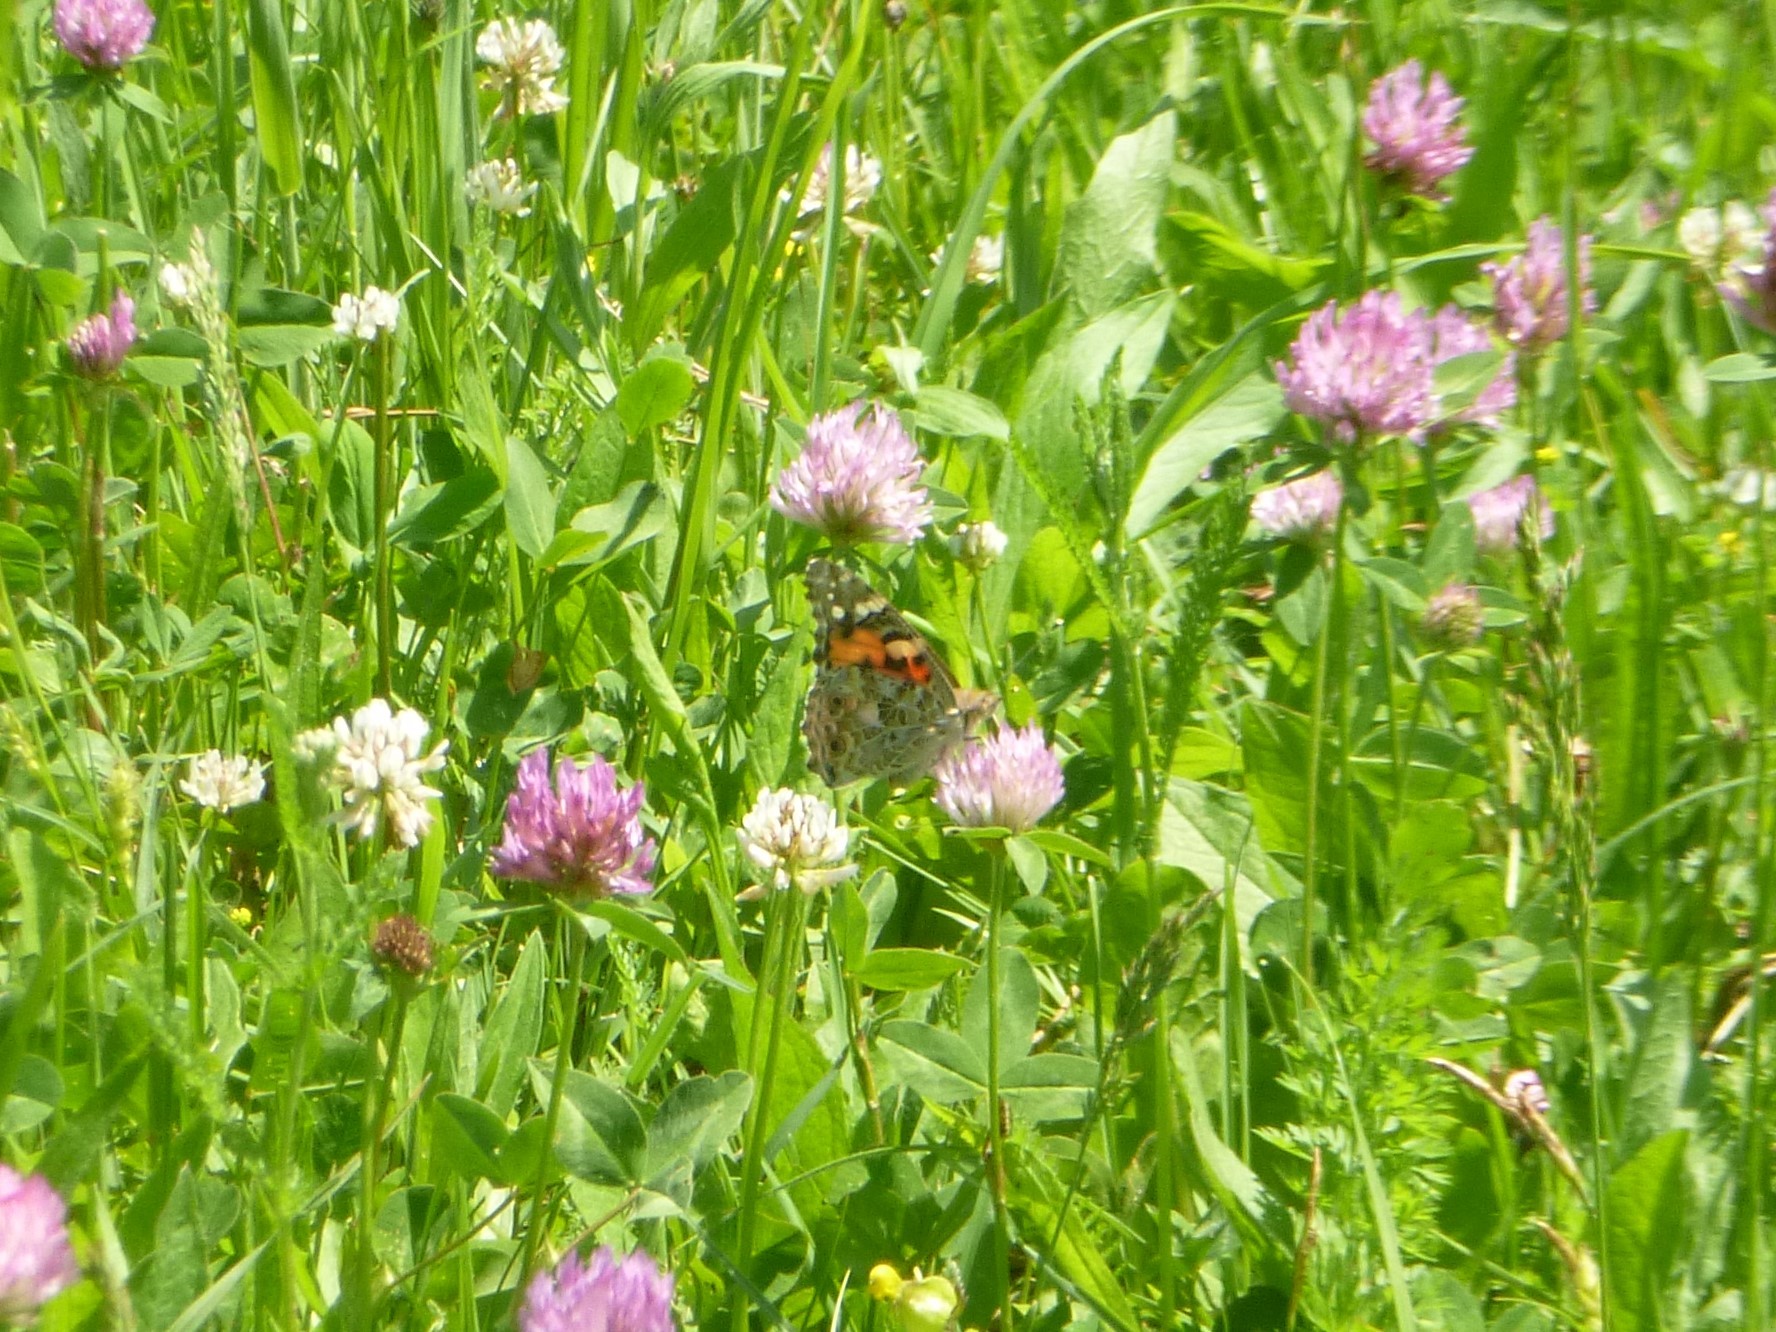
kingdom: Animalia
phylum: Arthropoda
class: Insecta
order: Lepidoptera
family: Nymphalidae
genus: Vanessa
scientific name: Vanessa cardui
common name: Painted lady
